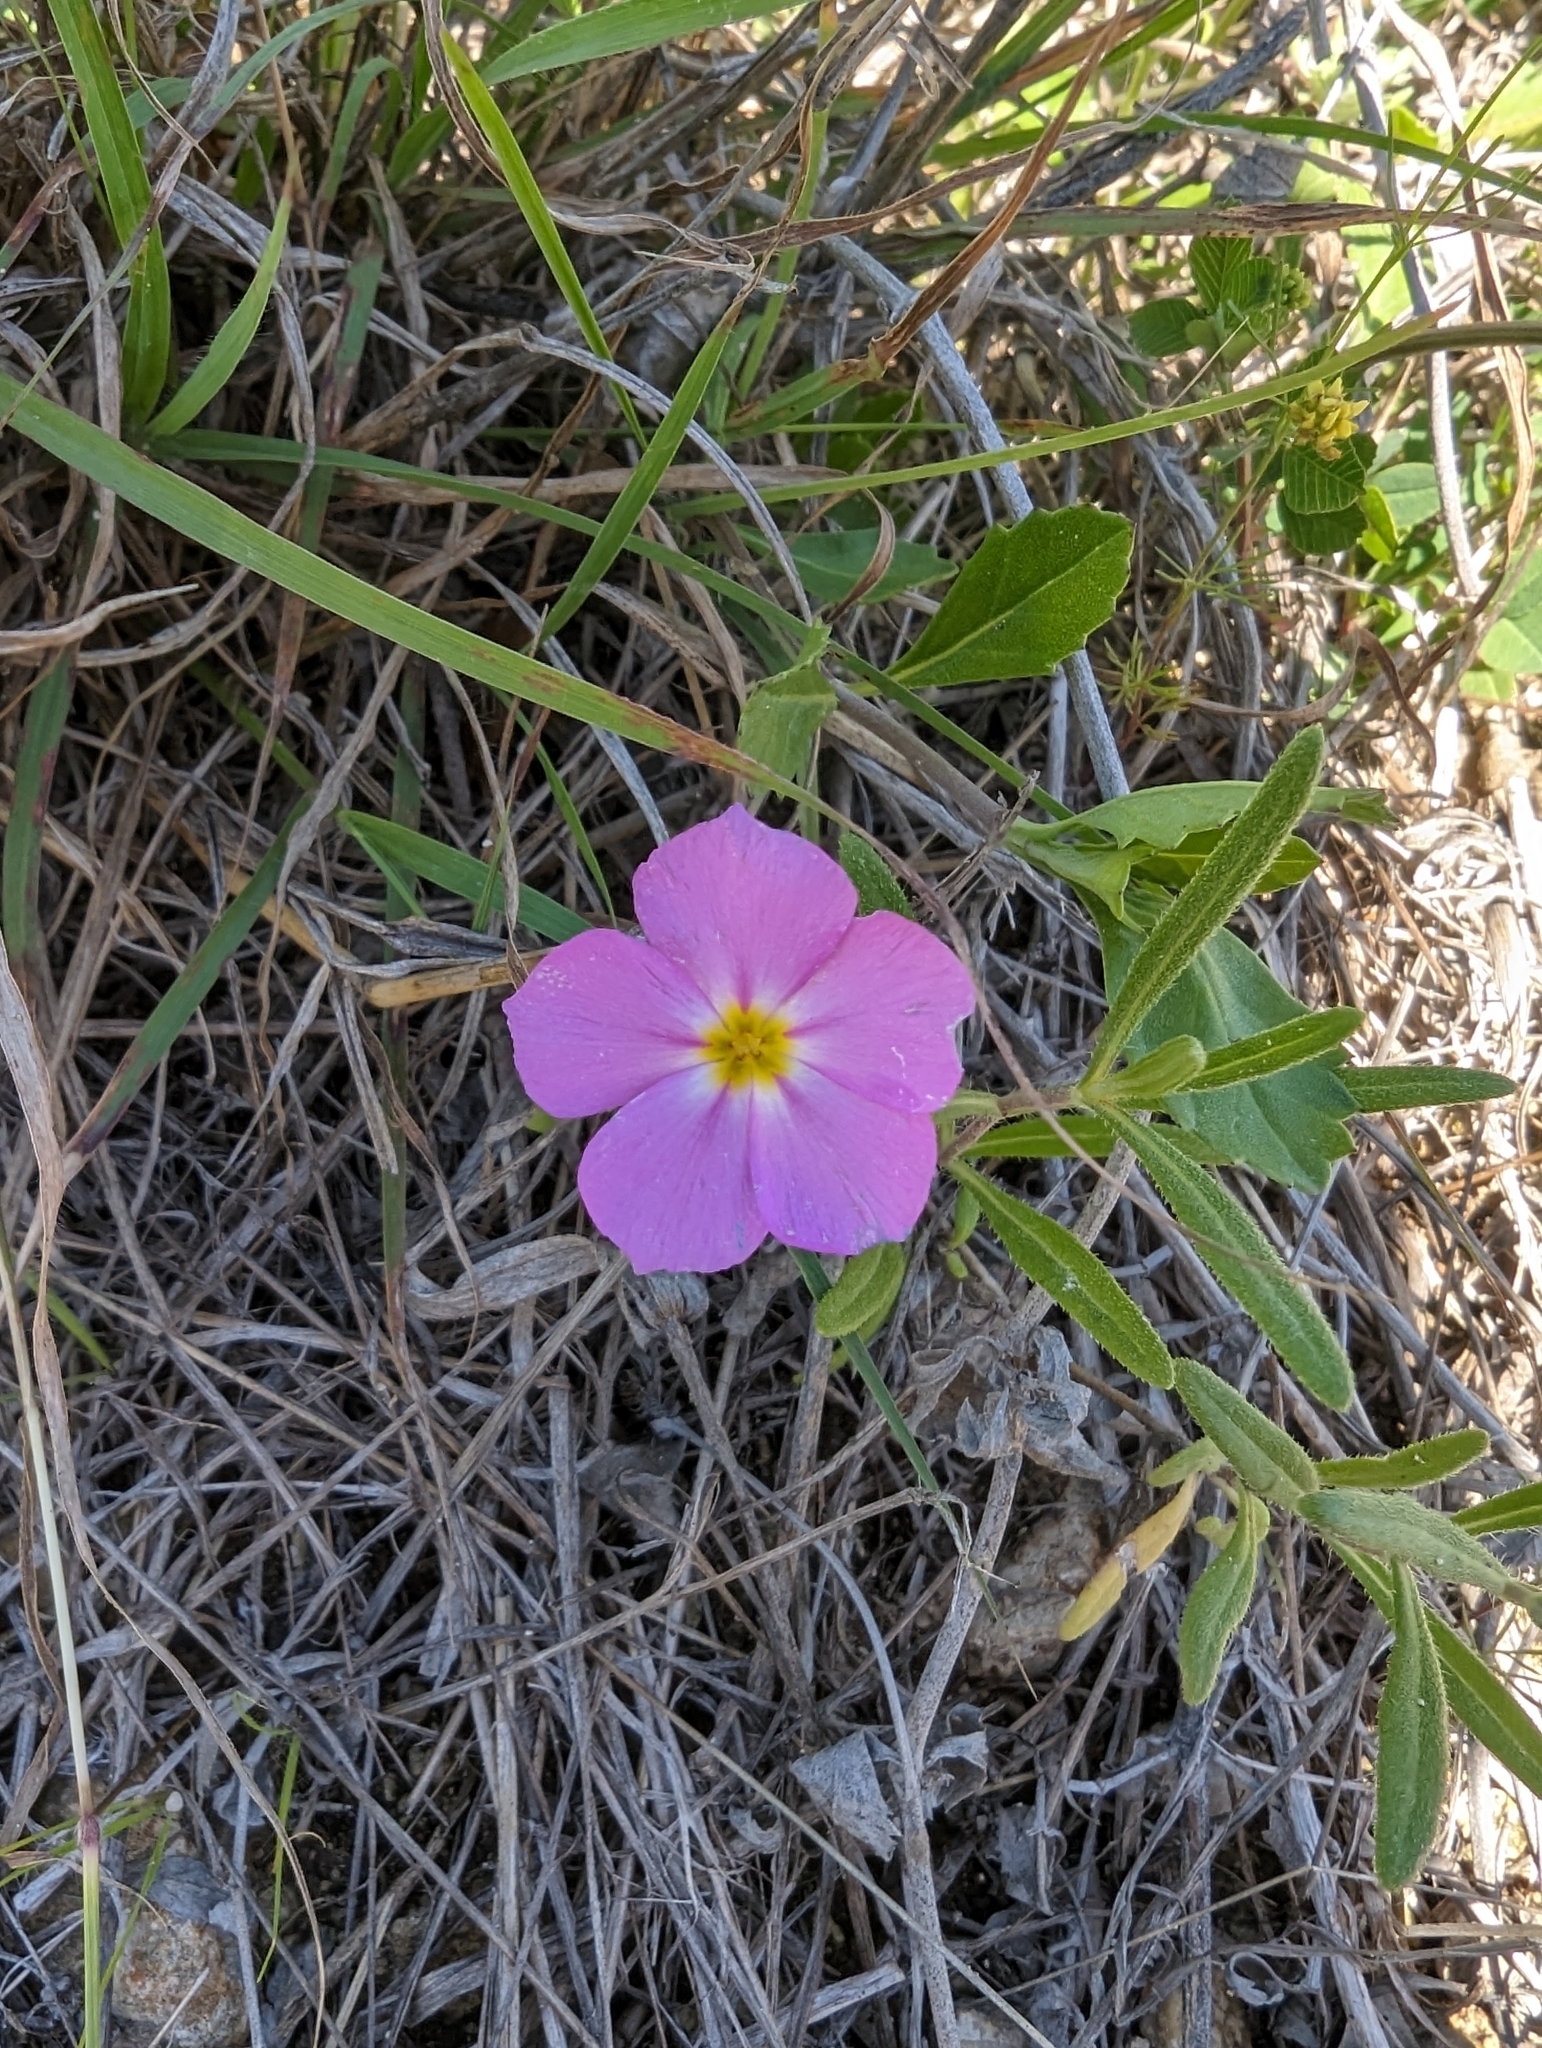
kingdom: Plantae
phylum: Tracheophyta
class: Magnoliopsida
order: Ericales
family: Polemoniaceae
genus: Phlox
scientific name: Phlox roemeriana
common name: Roemer's phlox
